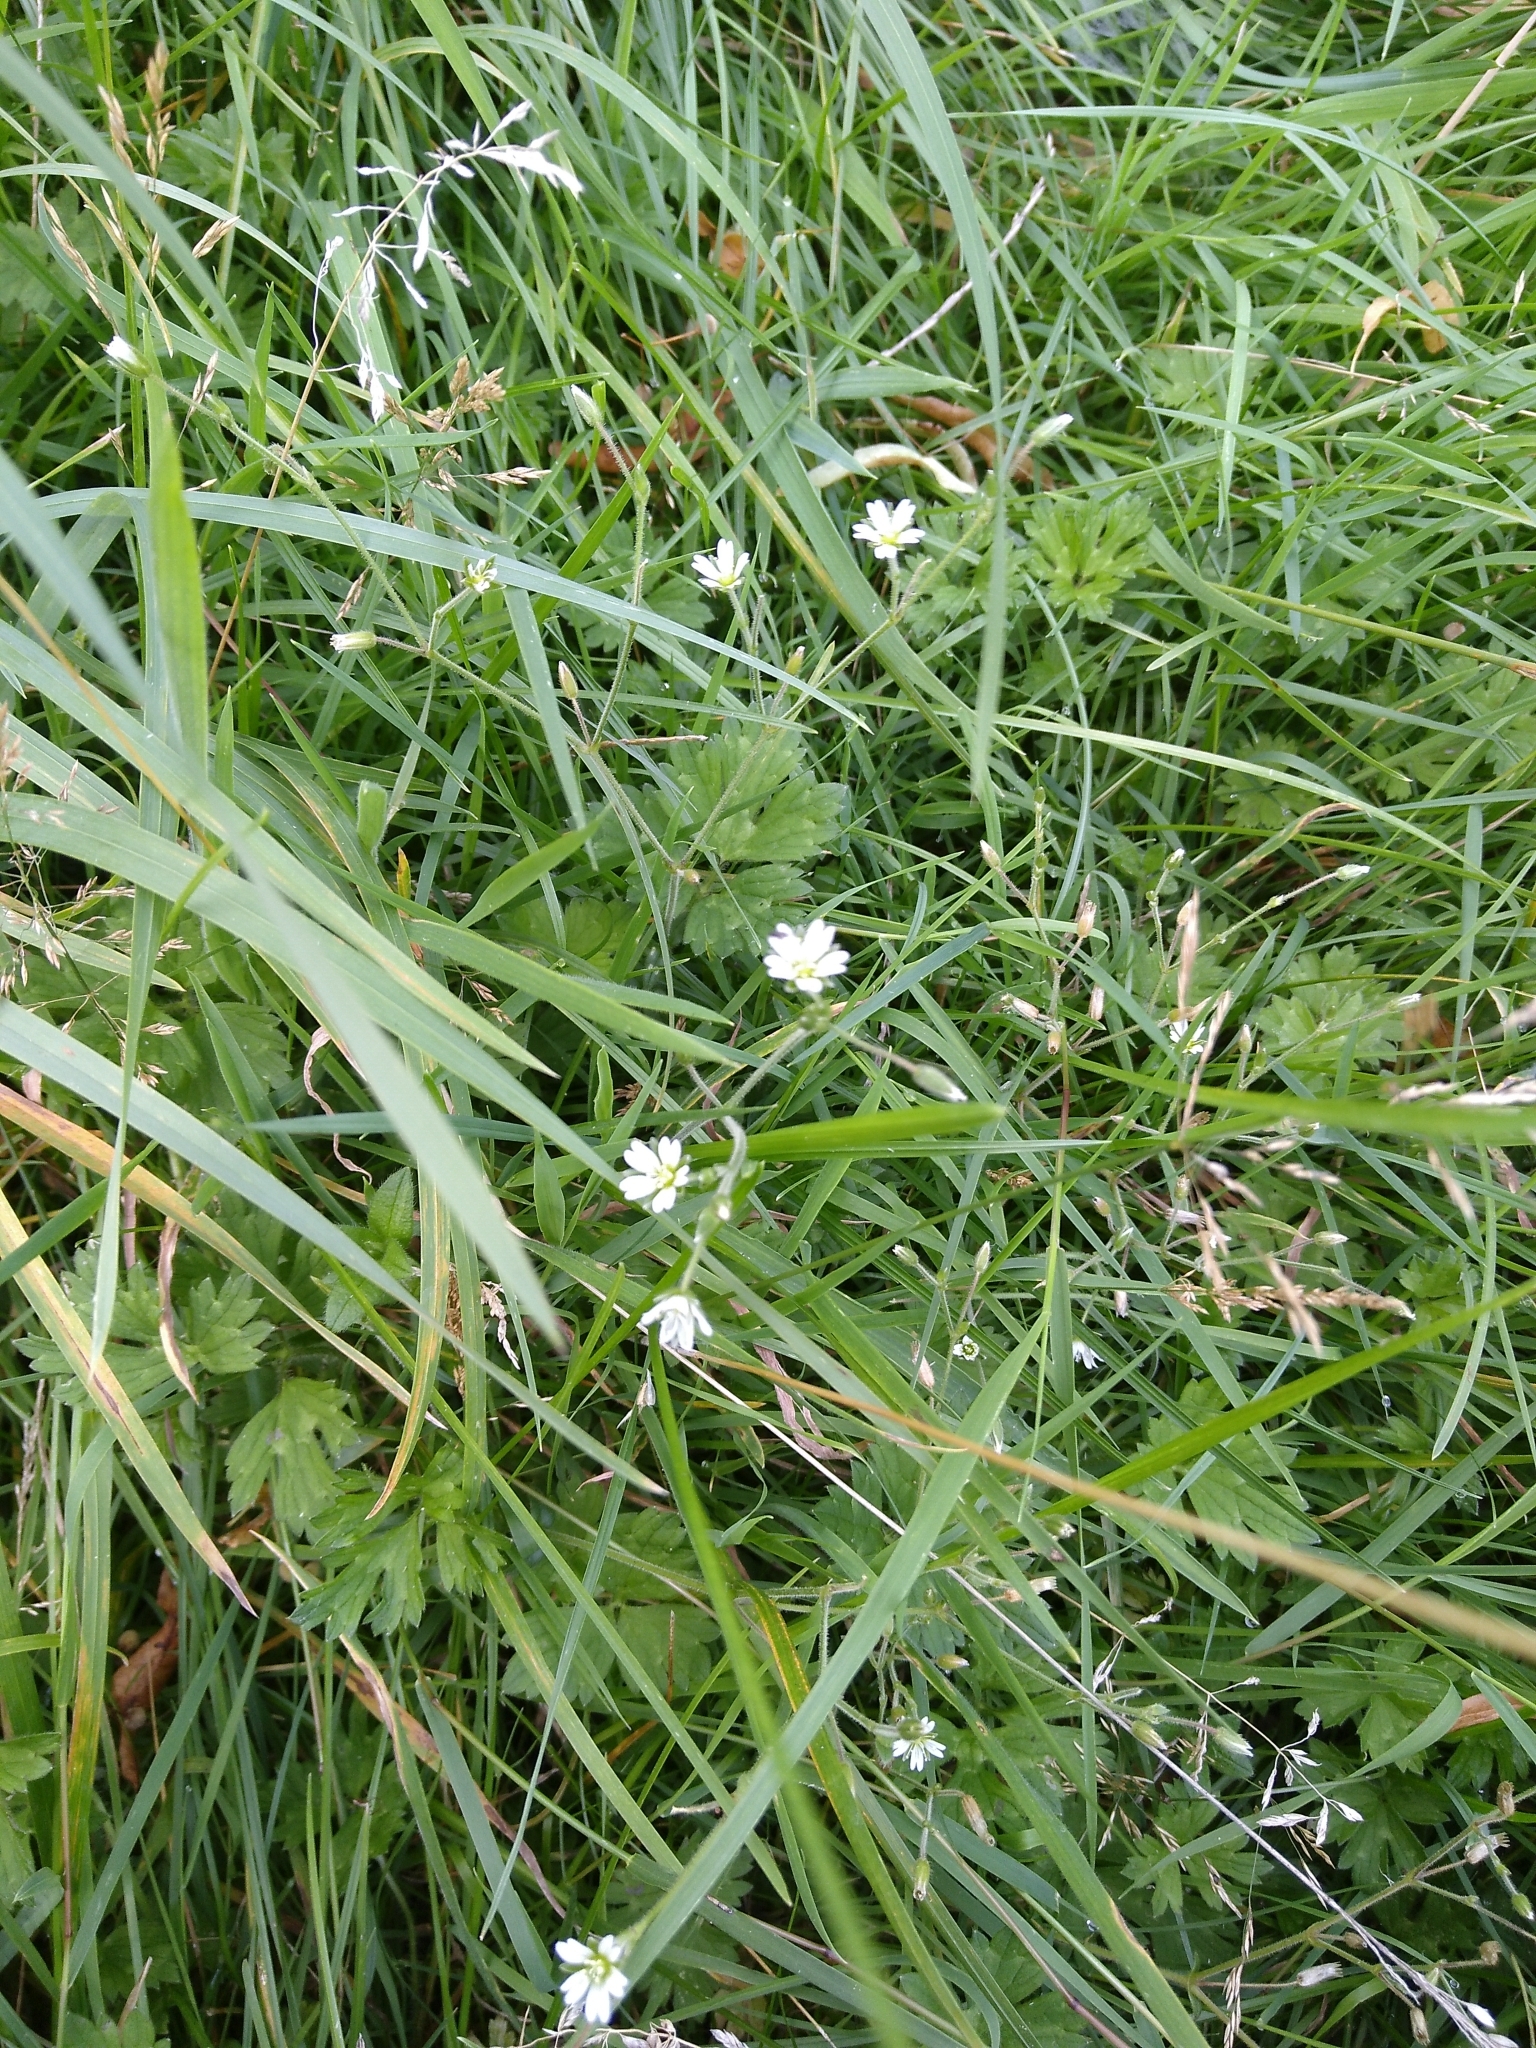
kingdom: Plantae
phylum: Tracheophyta
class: Magnoliopsida
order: Caryophyllales
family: Caryophyllaceae
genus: Cerastium
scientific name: Cerastium fontanum
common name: Common mouse-ear
